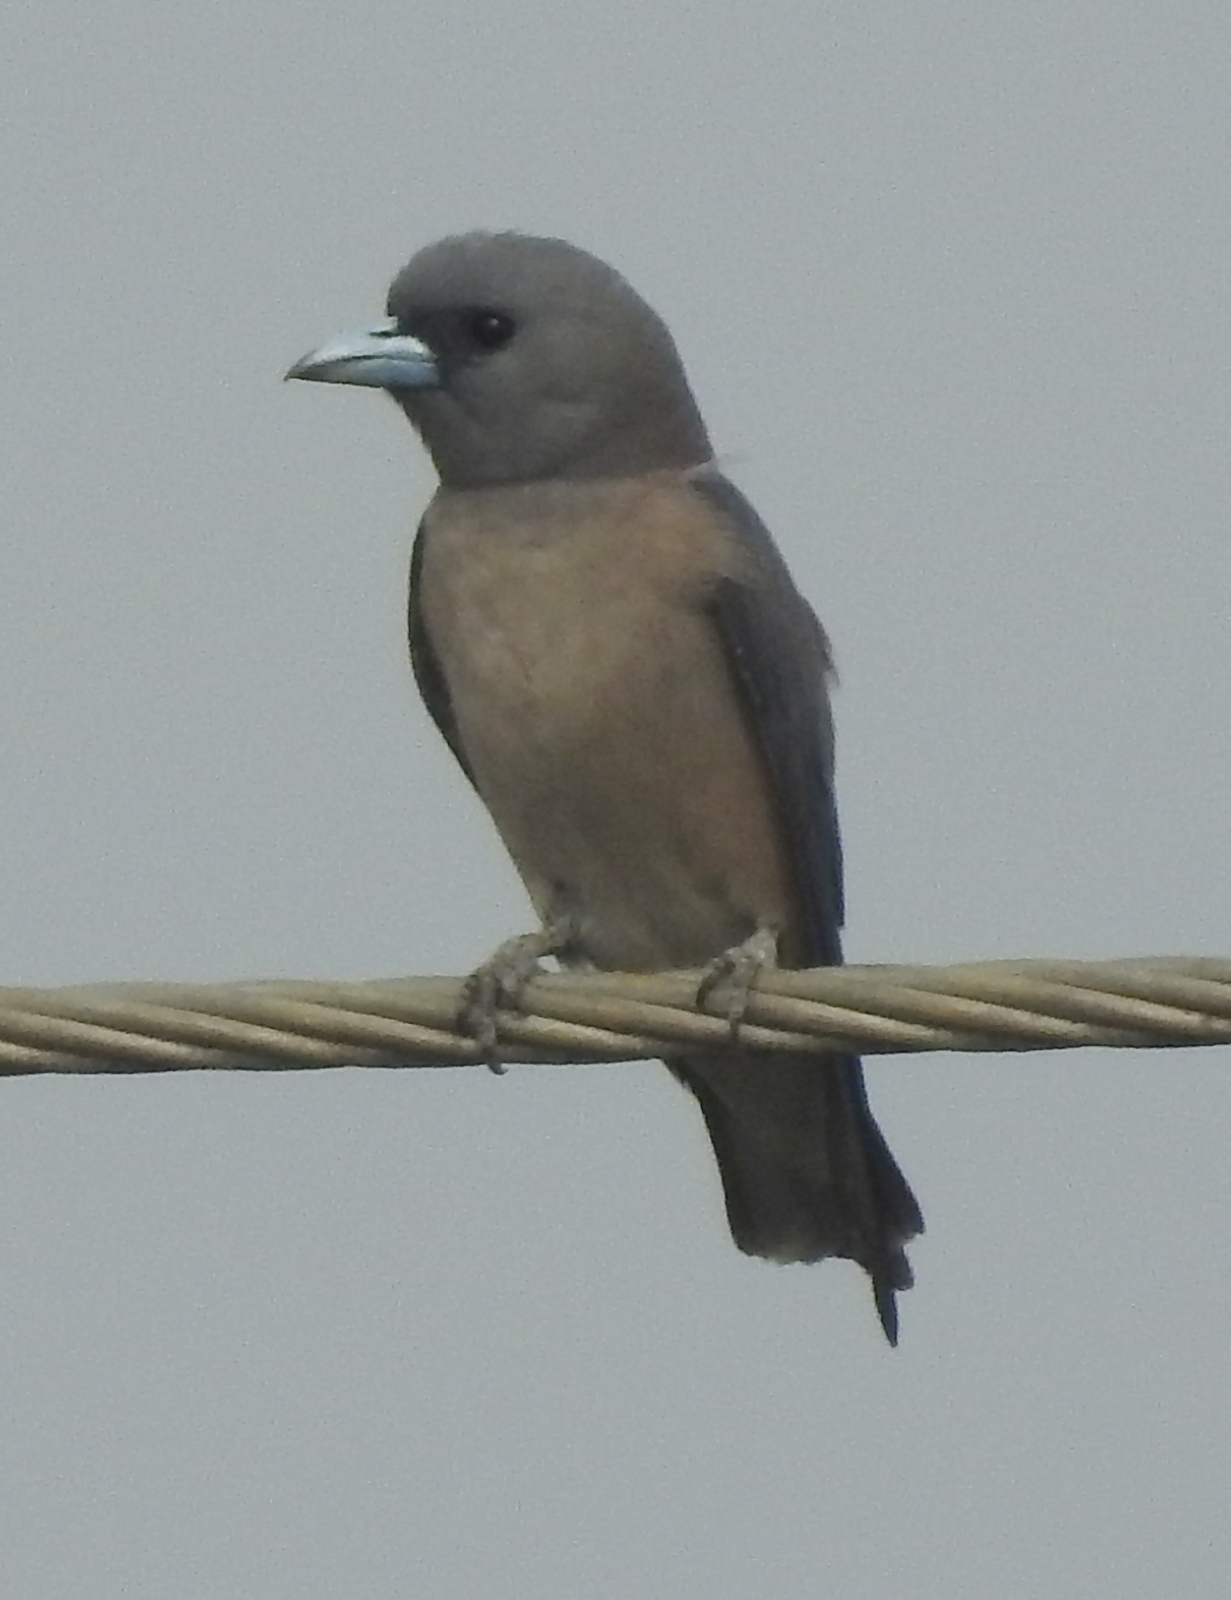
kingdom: Animalia
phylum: Chordata
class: Aves
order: Passeriformes
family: Artamidae
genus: Artamus
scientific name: Artamus fuscus
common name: Ashy woodswallow
